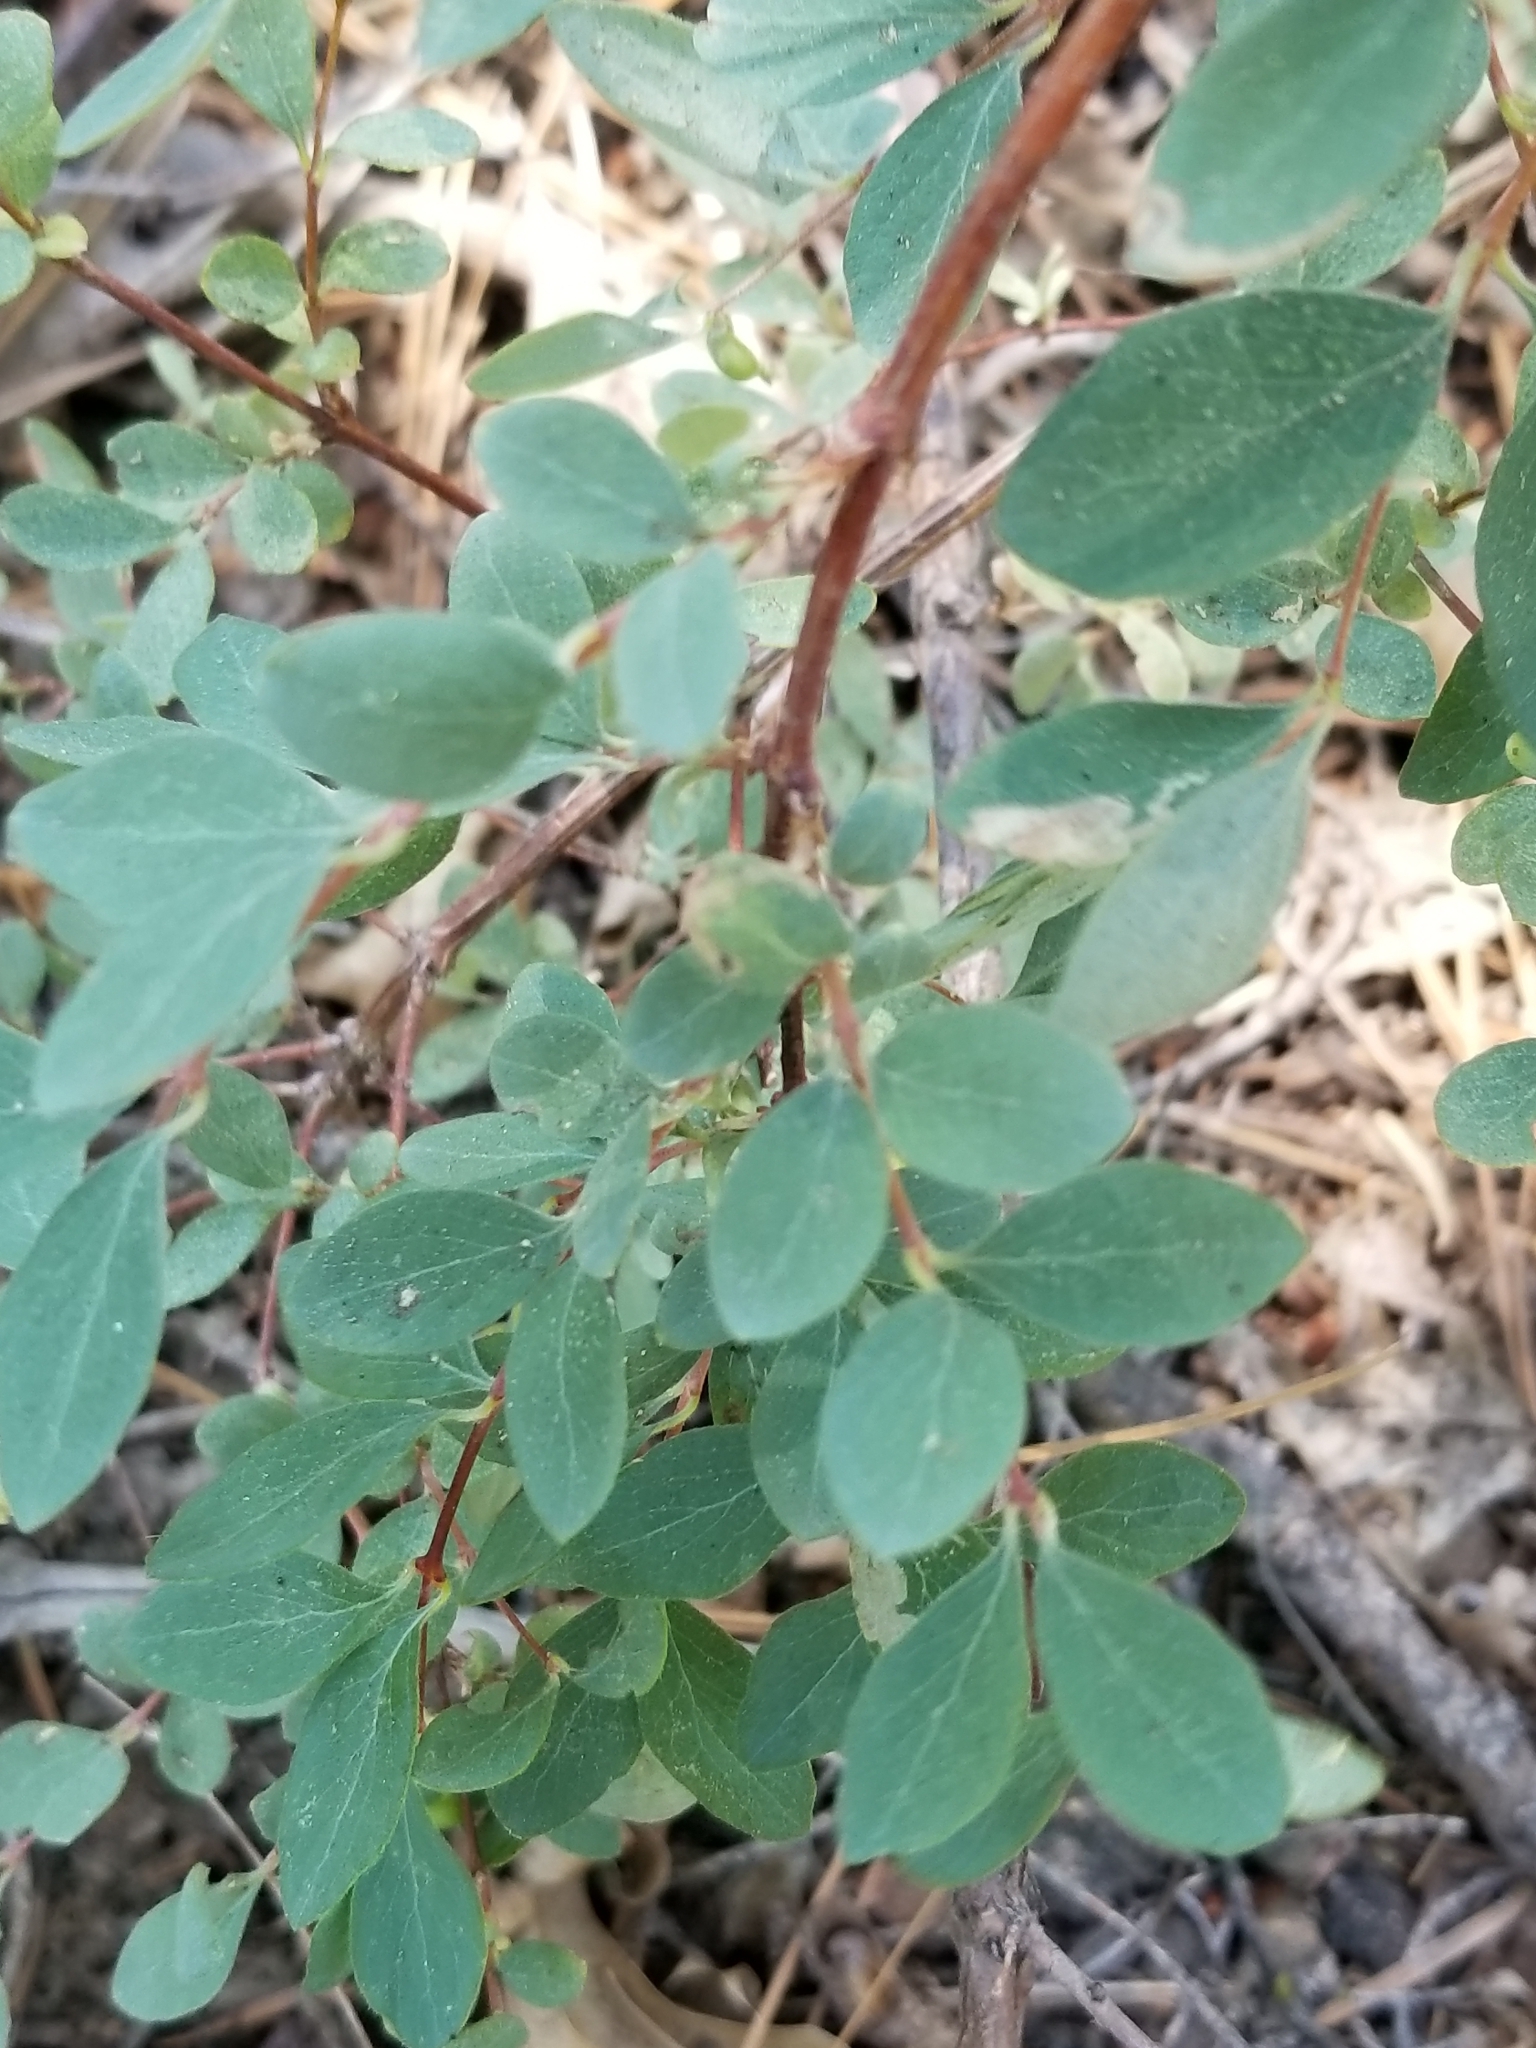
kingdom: Plantae
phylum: Tracheophyta
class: Magnoliopsida
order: Dipsacales
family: Caprifoliaceae
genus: Symphoricarpos
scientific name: Symphoricarpos rotundifolius
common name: Round-leaved snowberry
